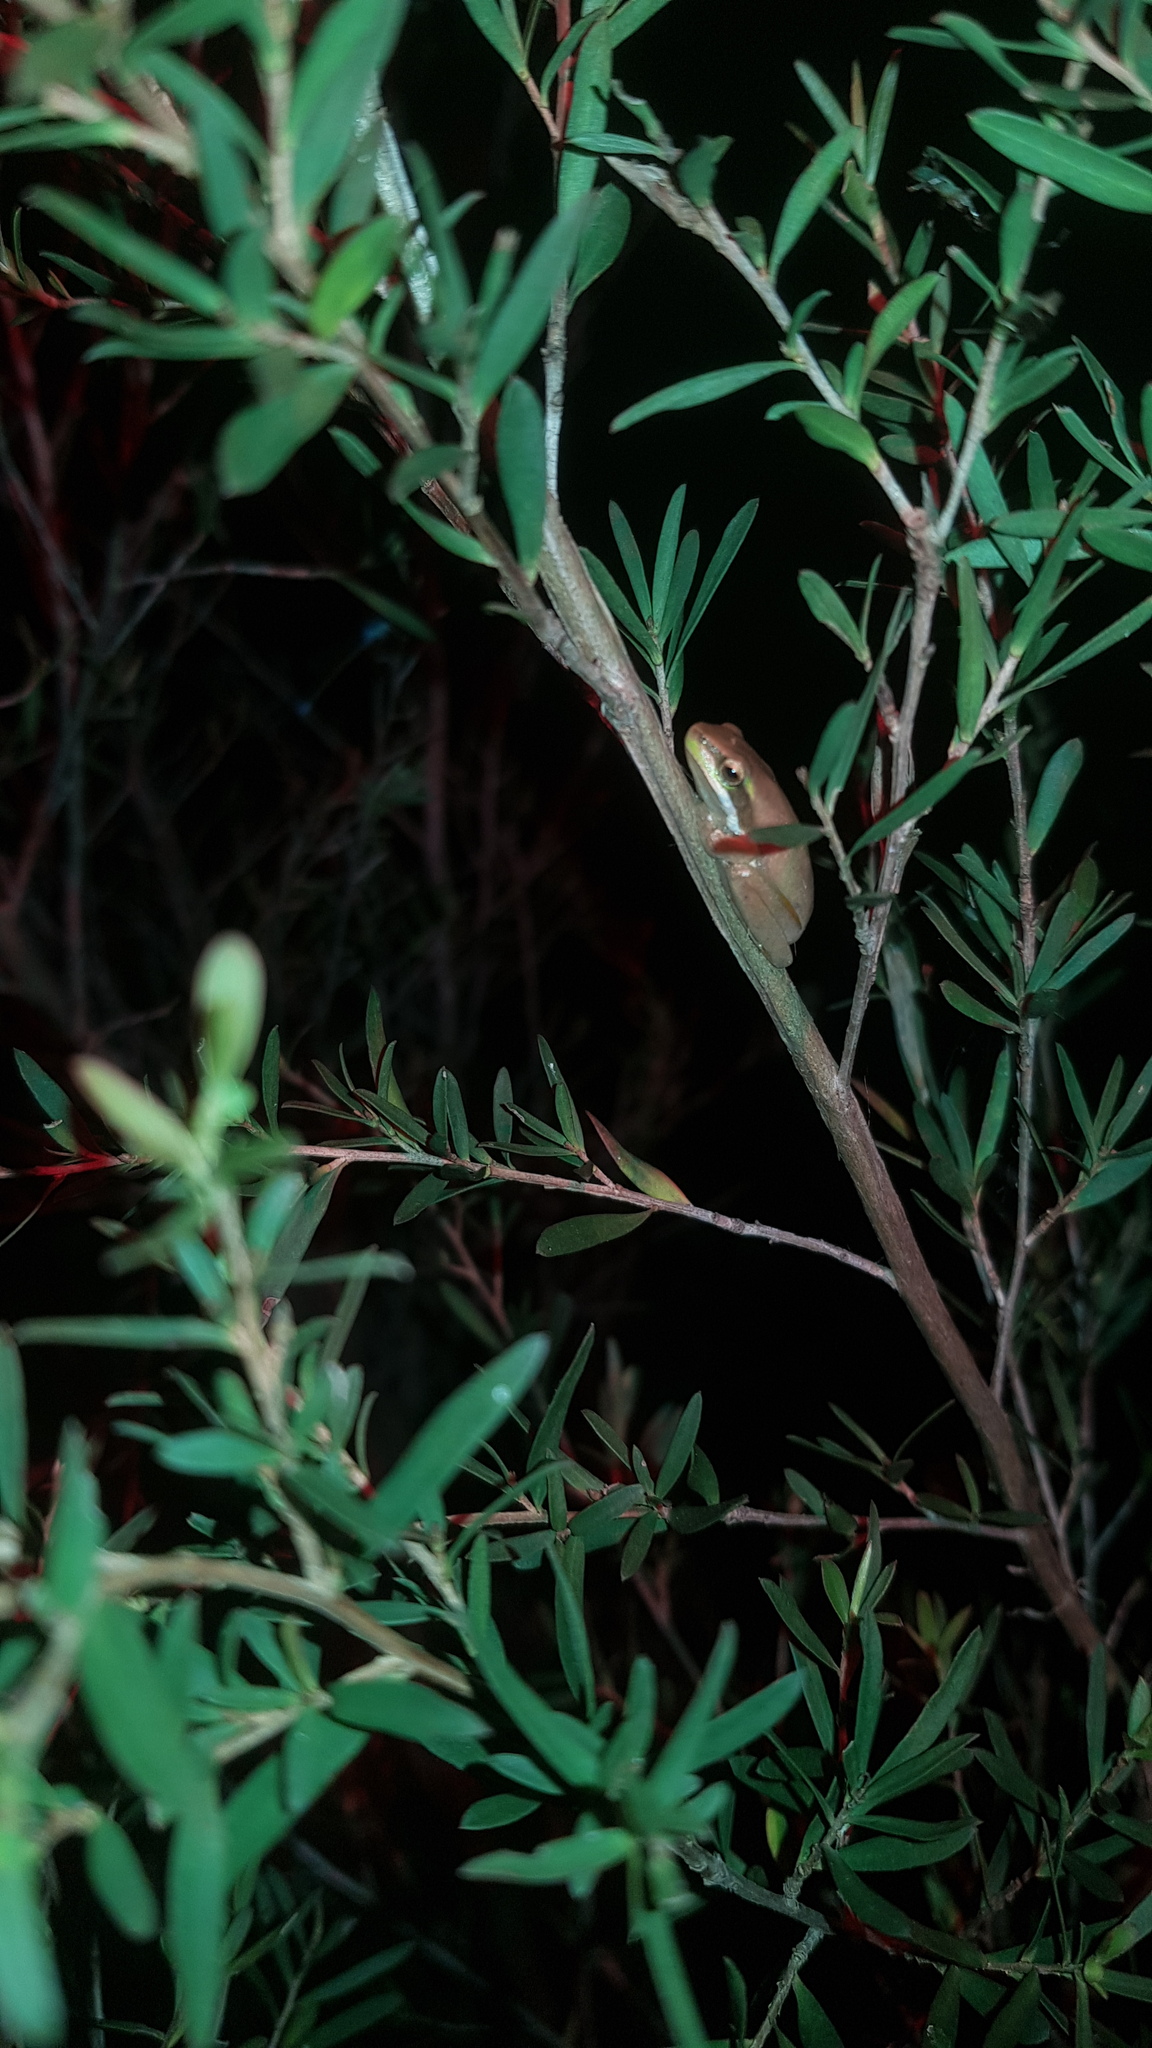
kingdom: Animalia
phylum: Chordata
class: Amphibia
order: Anura
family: Pelodryadidae
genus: Litoria
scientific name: Litoria fallax
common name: Eastern dwarf treefrog
